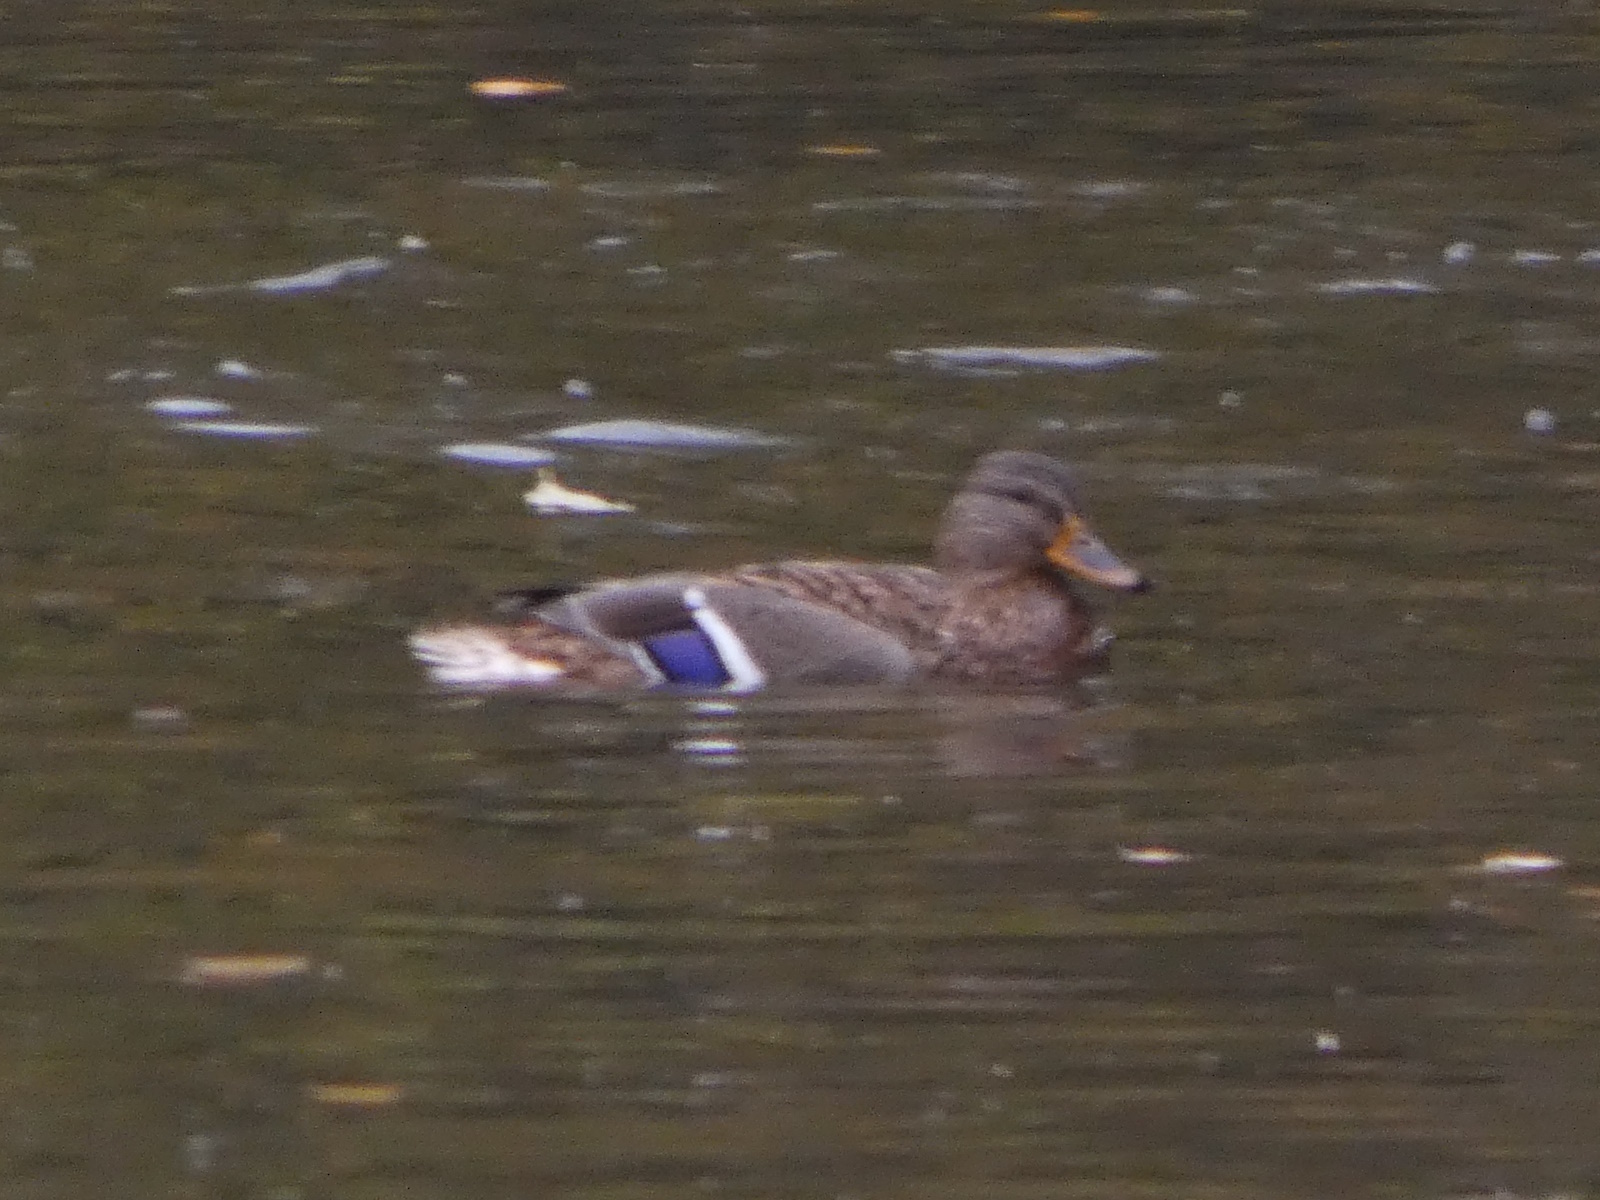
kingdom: Animalia
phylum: Chordata
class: Aves
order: Anseriformes
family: Anatidae
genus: Anas
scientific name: Anas platyrhynchos
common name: Mallard
